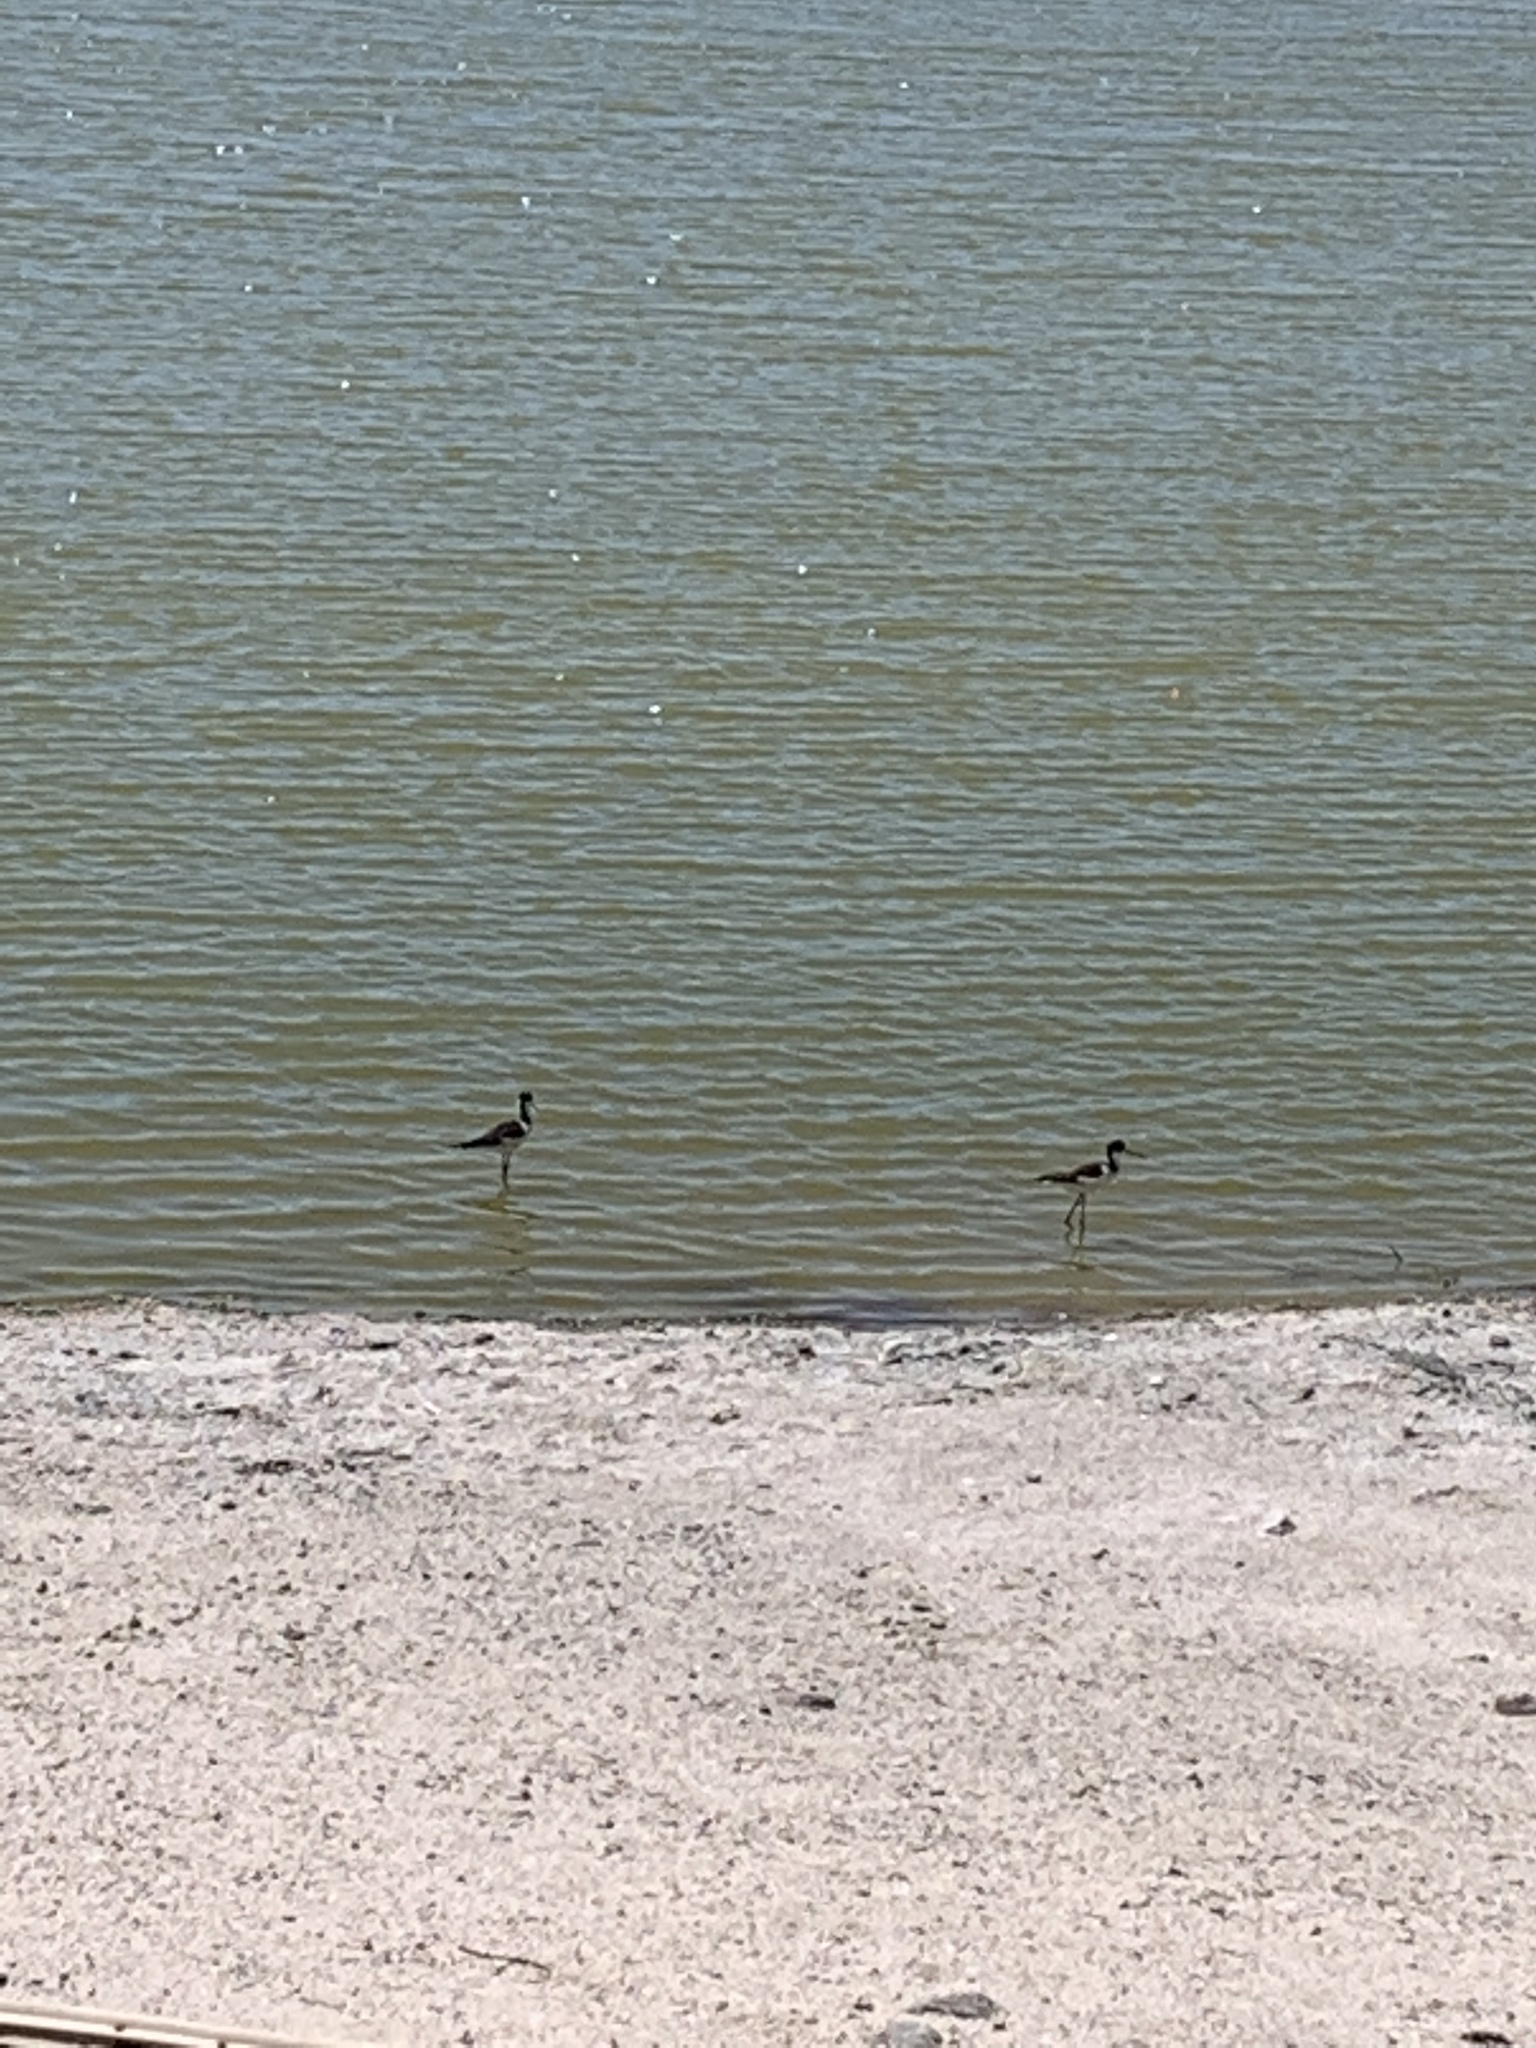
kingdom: Animalia
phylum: Chordata
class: Aves
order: Charadriiformes
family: Recurvirostridae
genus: Himantopus
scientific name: Himantopus mexicanus
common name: Black-necked stilt
